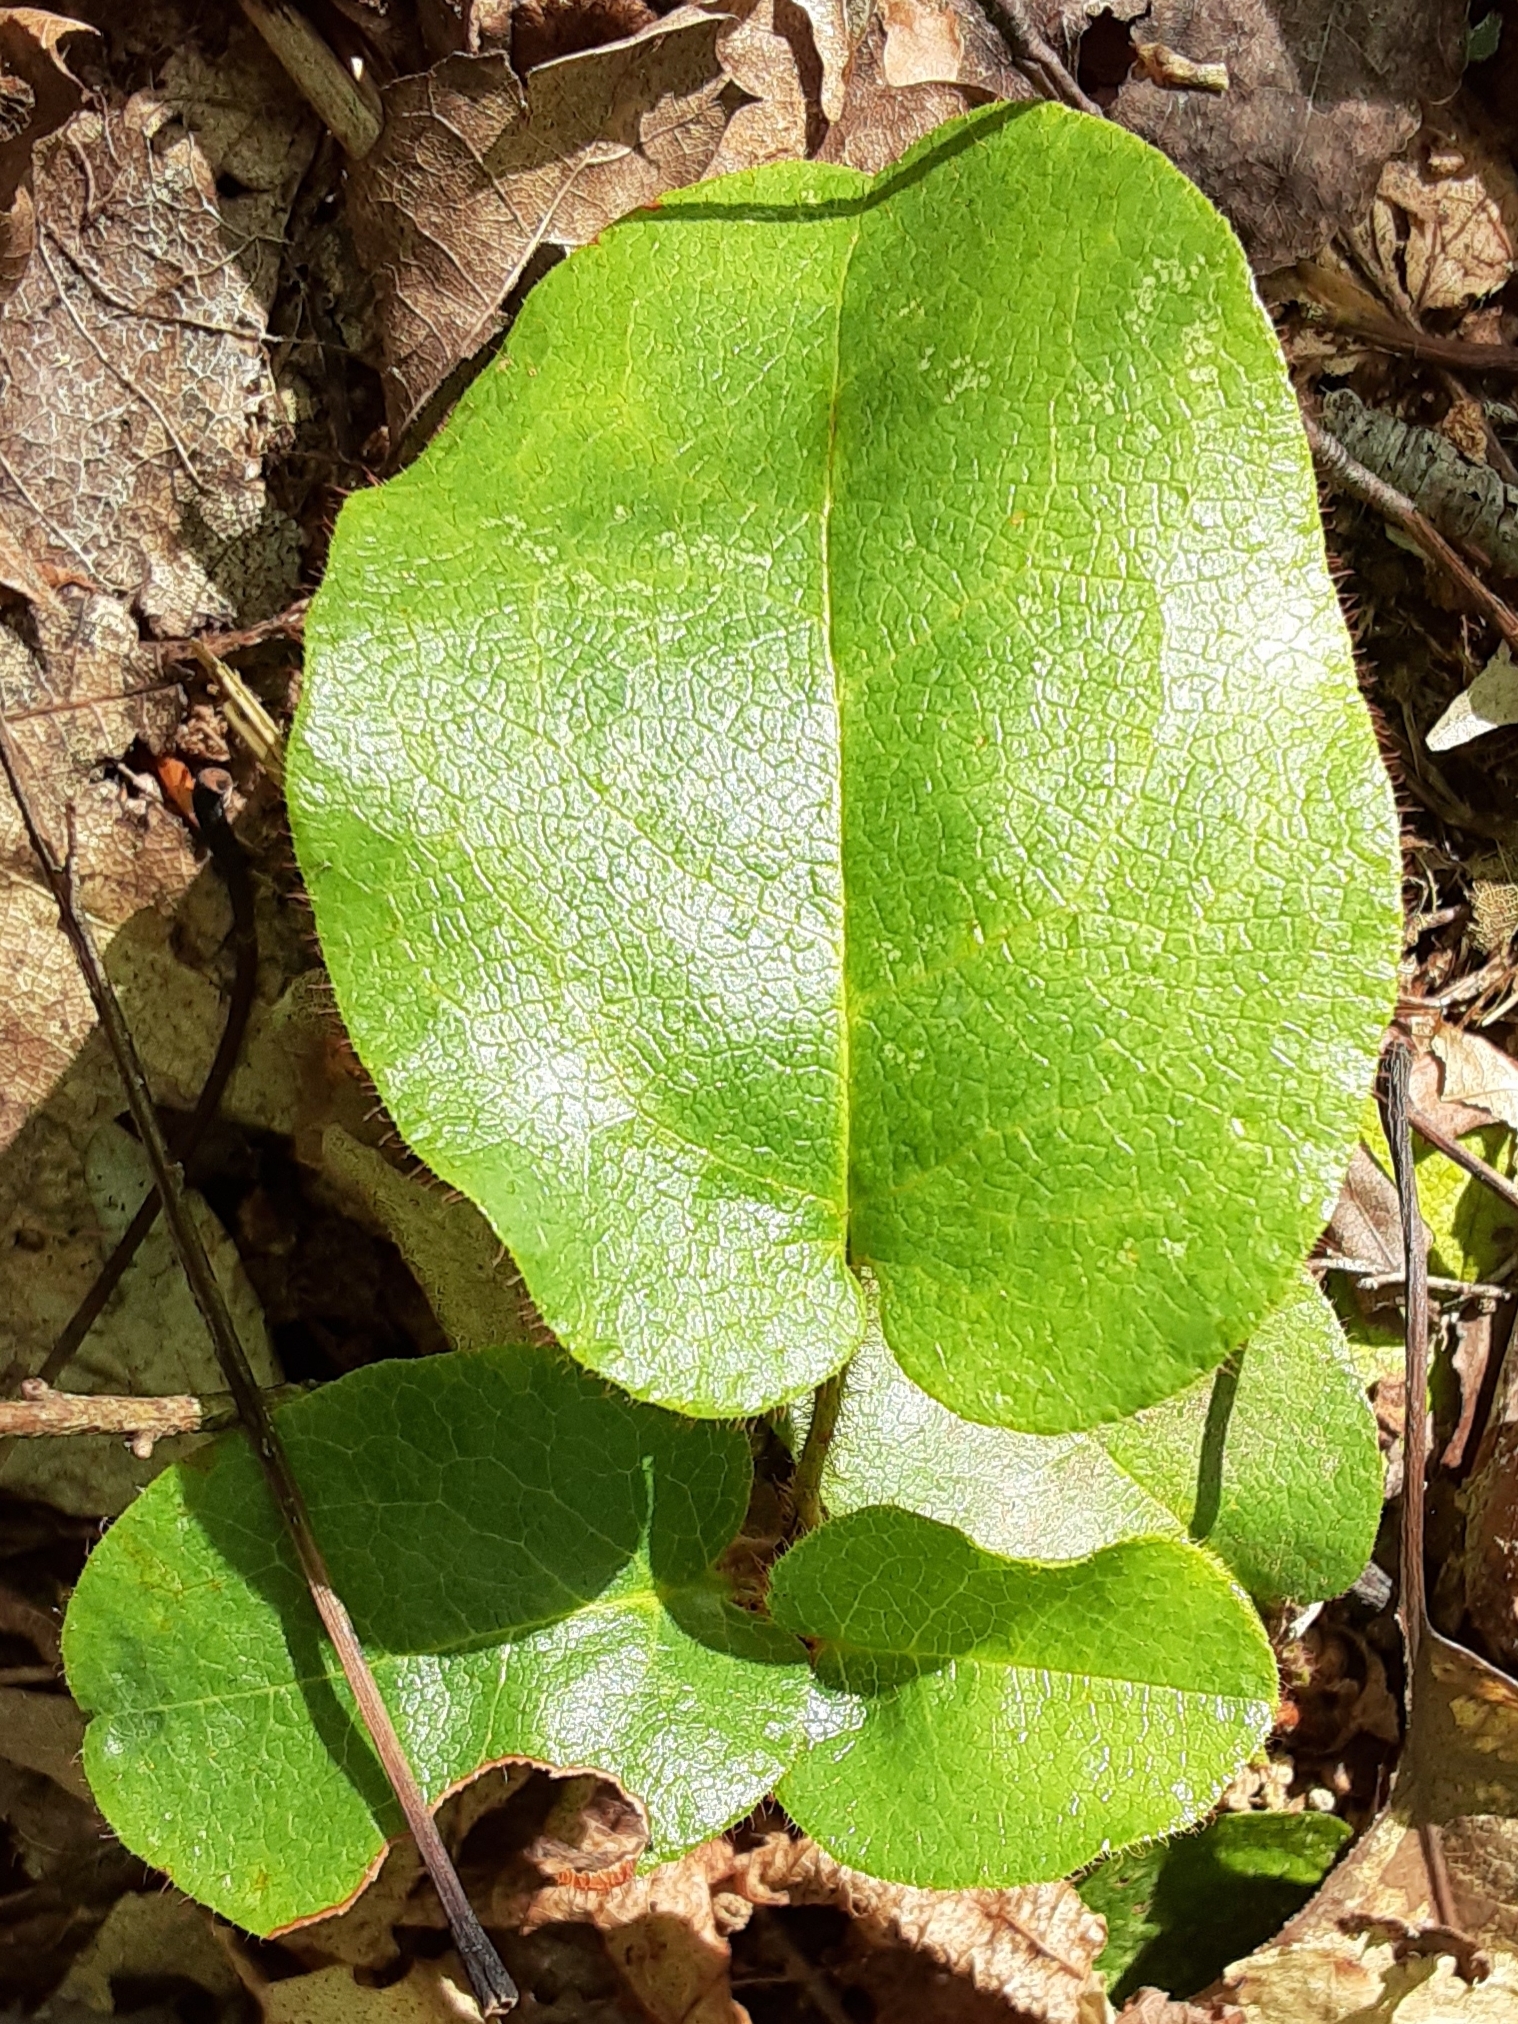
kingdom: Plantae
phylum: Tracheophyta
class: Magnoliopsida
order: Ericales
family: Ericaceae
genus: Epigaea
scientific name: Epigaea repens
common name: Gravelroot
